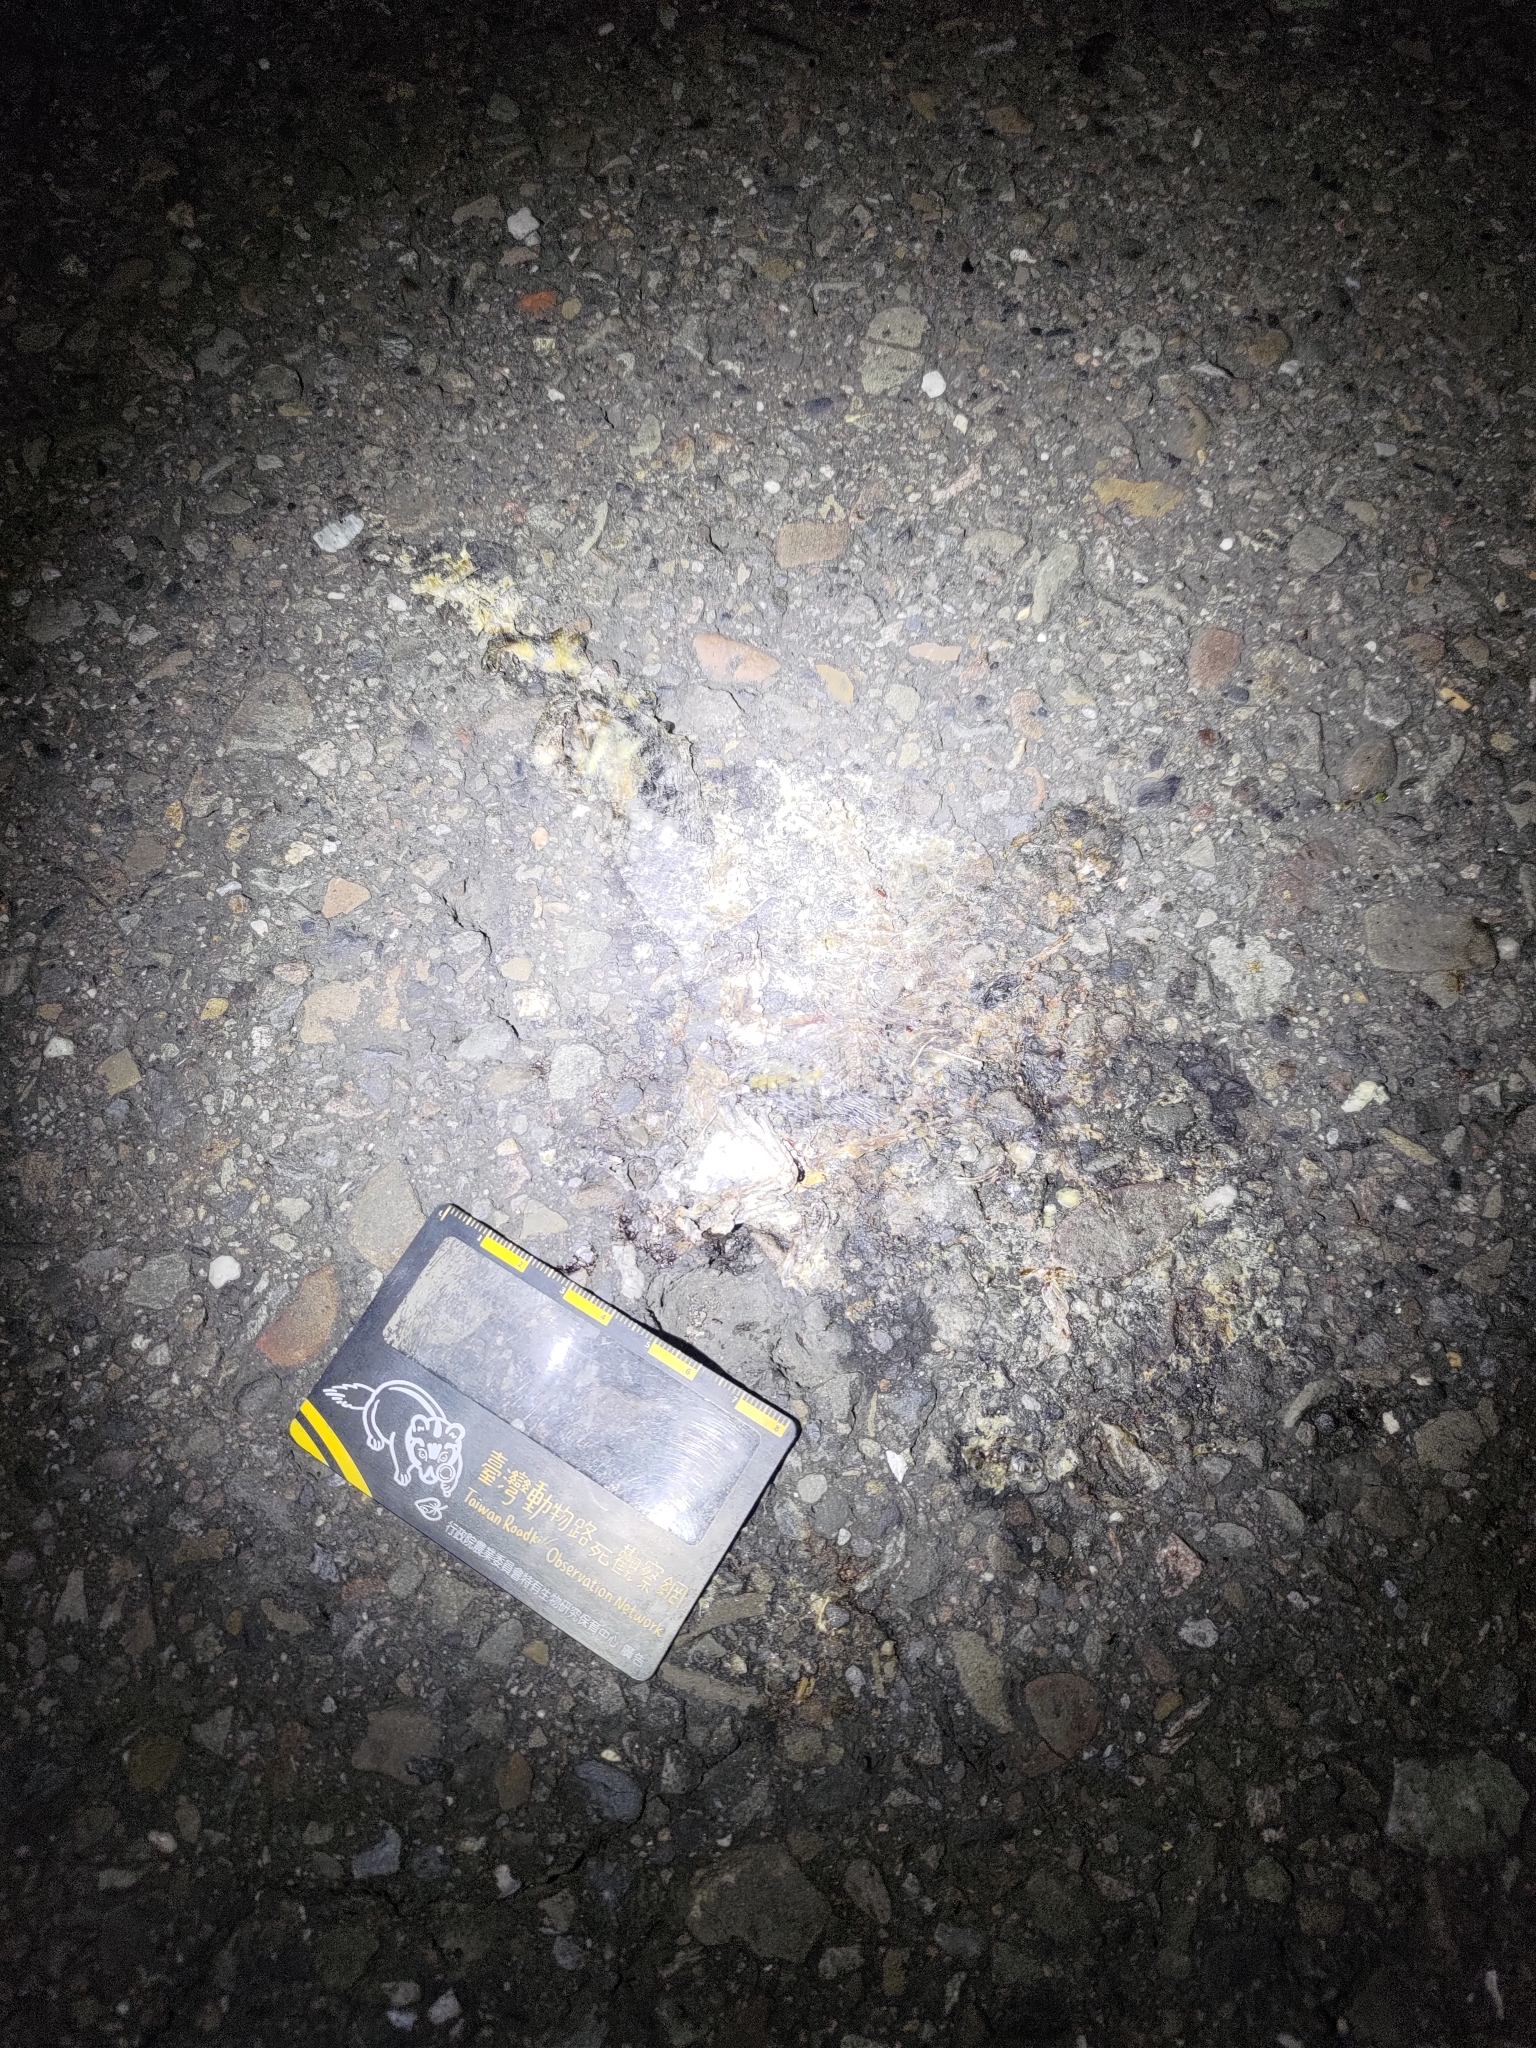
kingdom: Animalia
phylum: Chordata
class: Squamata
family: Scincidae
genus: Eutropis
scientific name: Eutropis multifasciata
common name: Common mabuya
